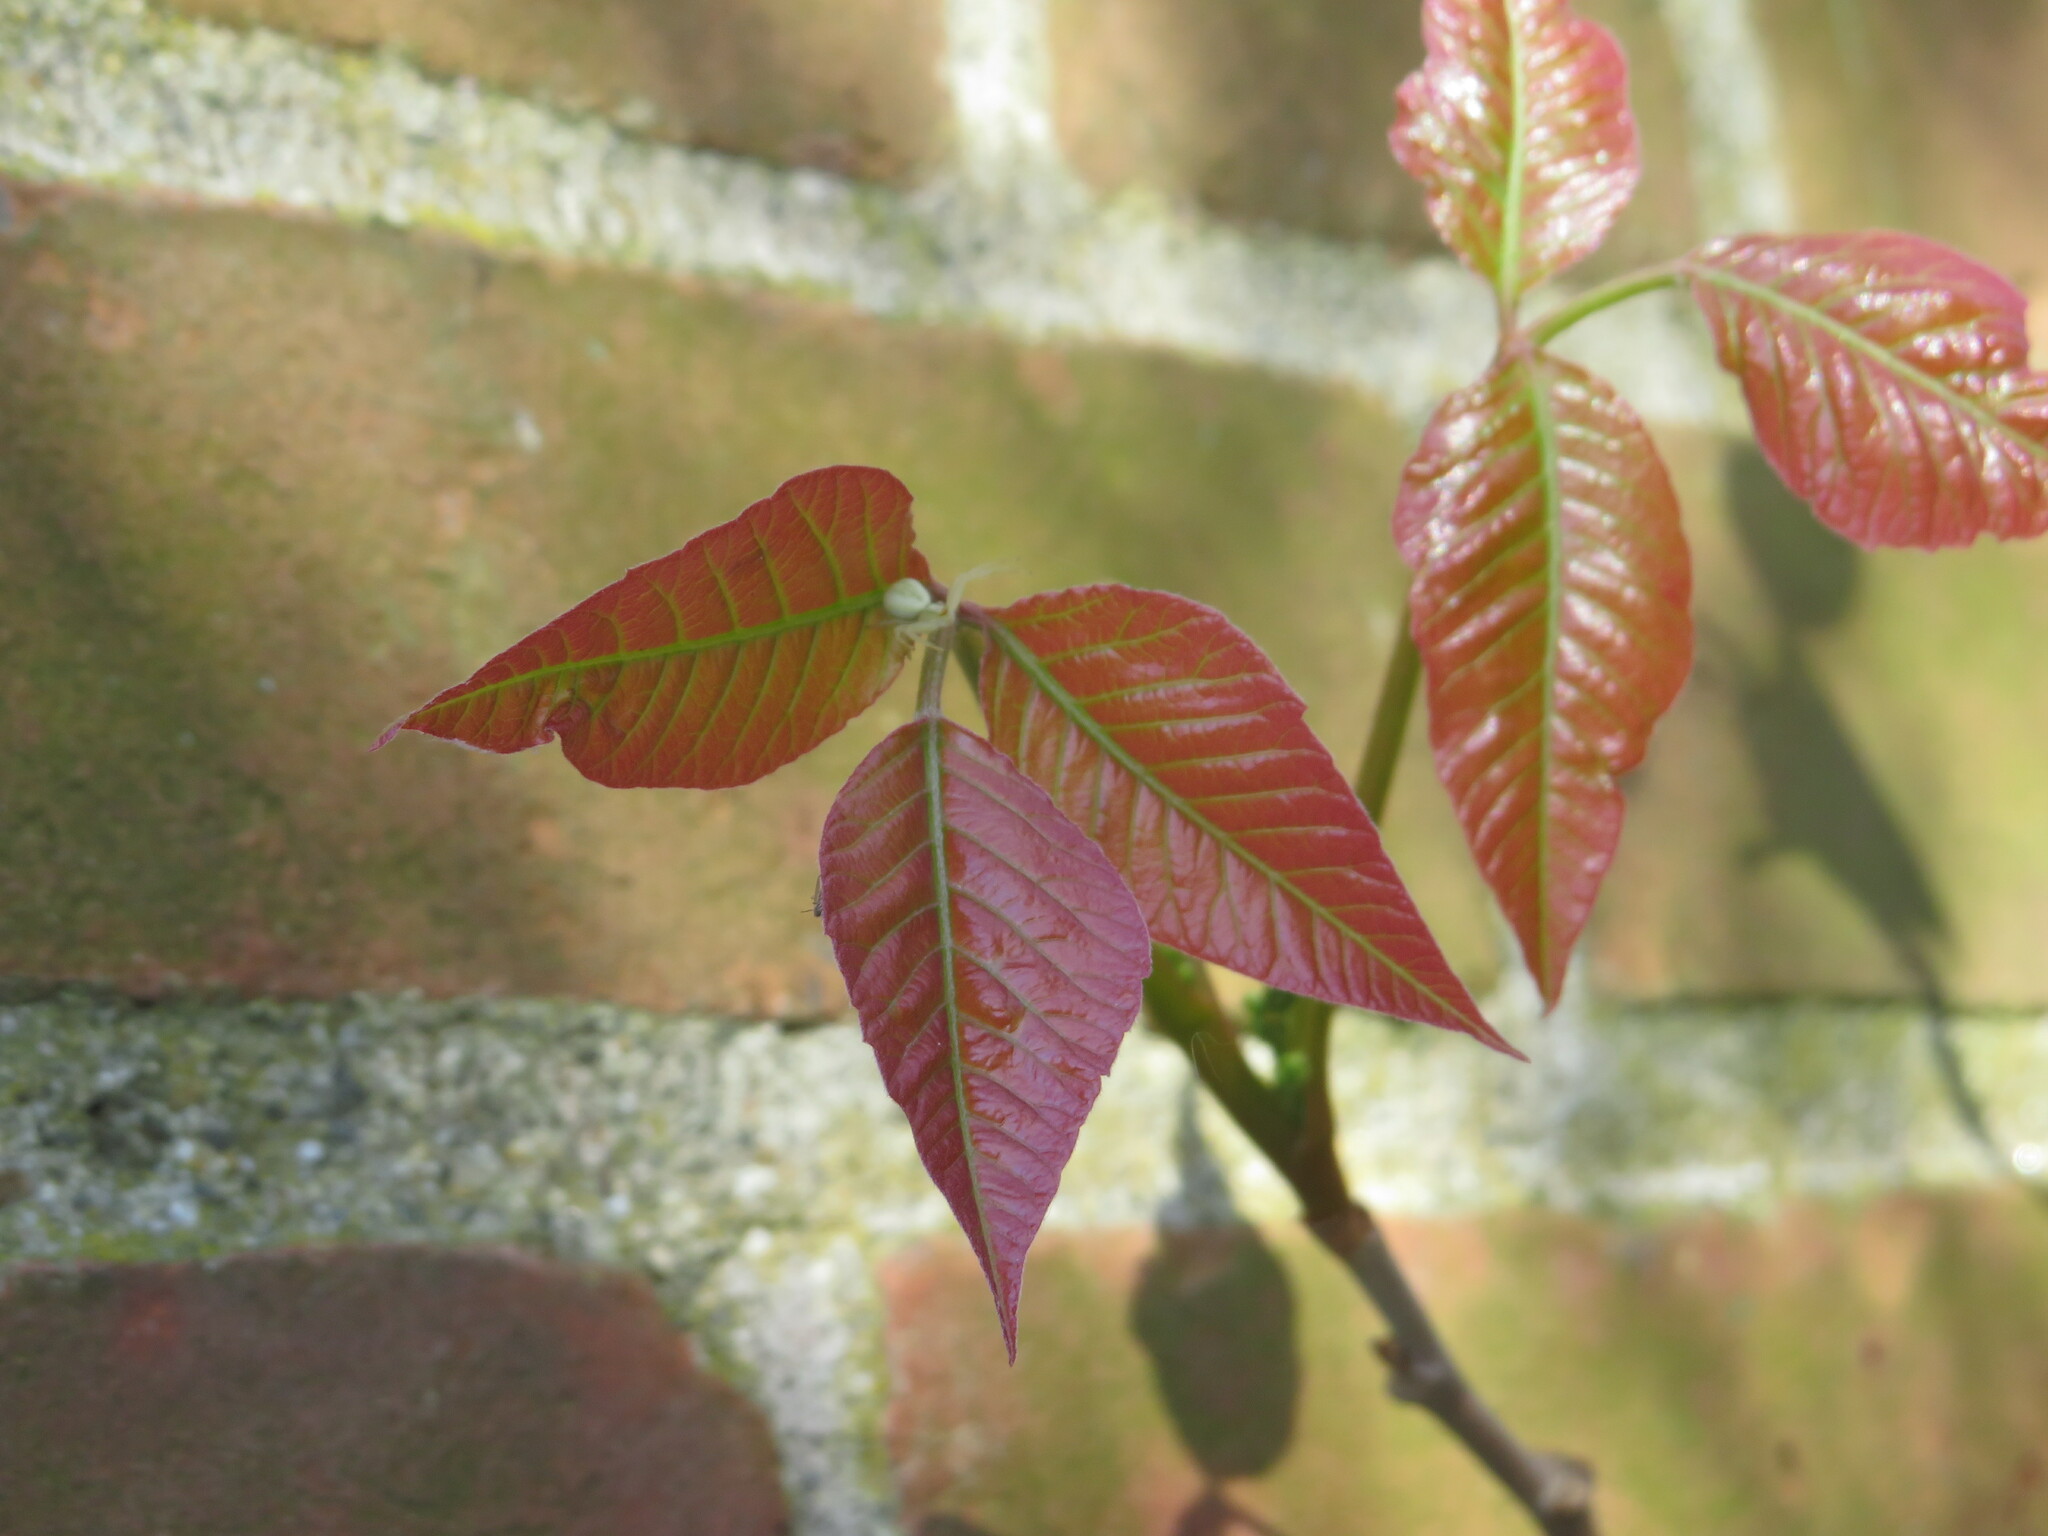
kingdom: Animalia
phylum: Arthropoda
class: Arachnida
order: Araneae
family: Thomisidae
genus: Misumena
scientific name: Misumena vatia
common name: Goldenrod crab spider
